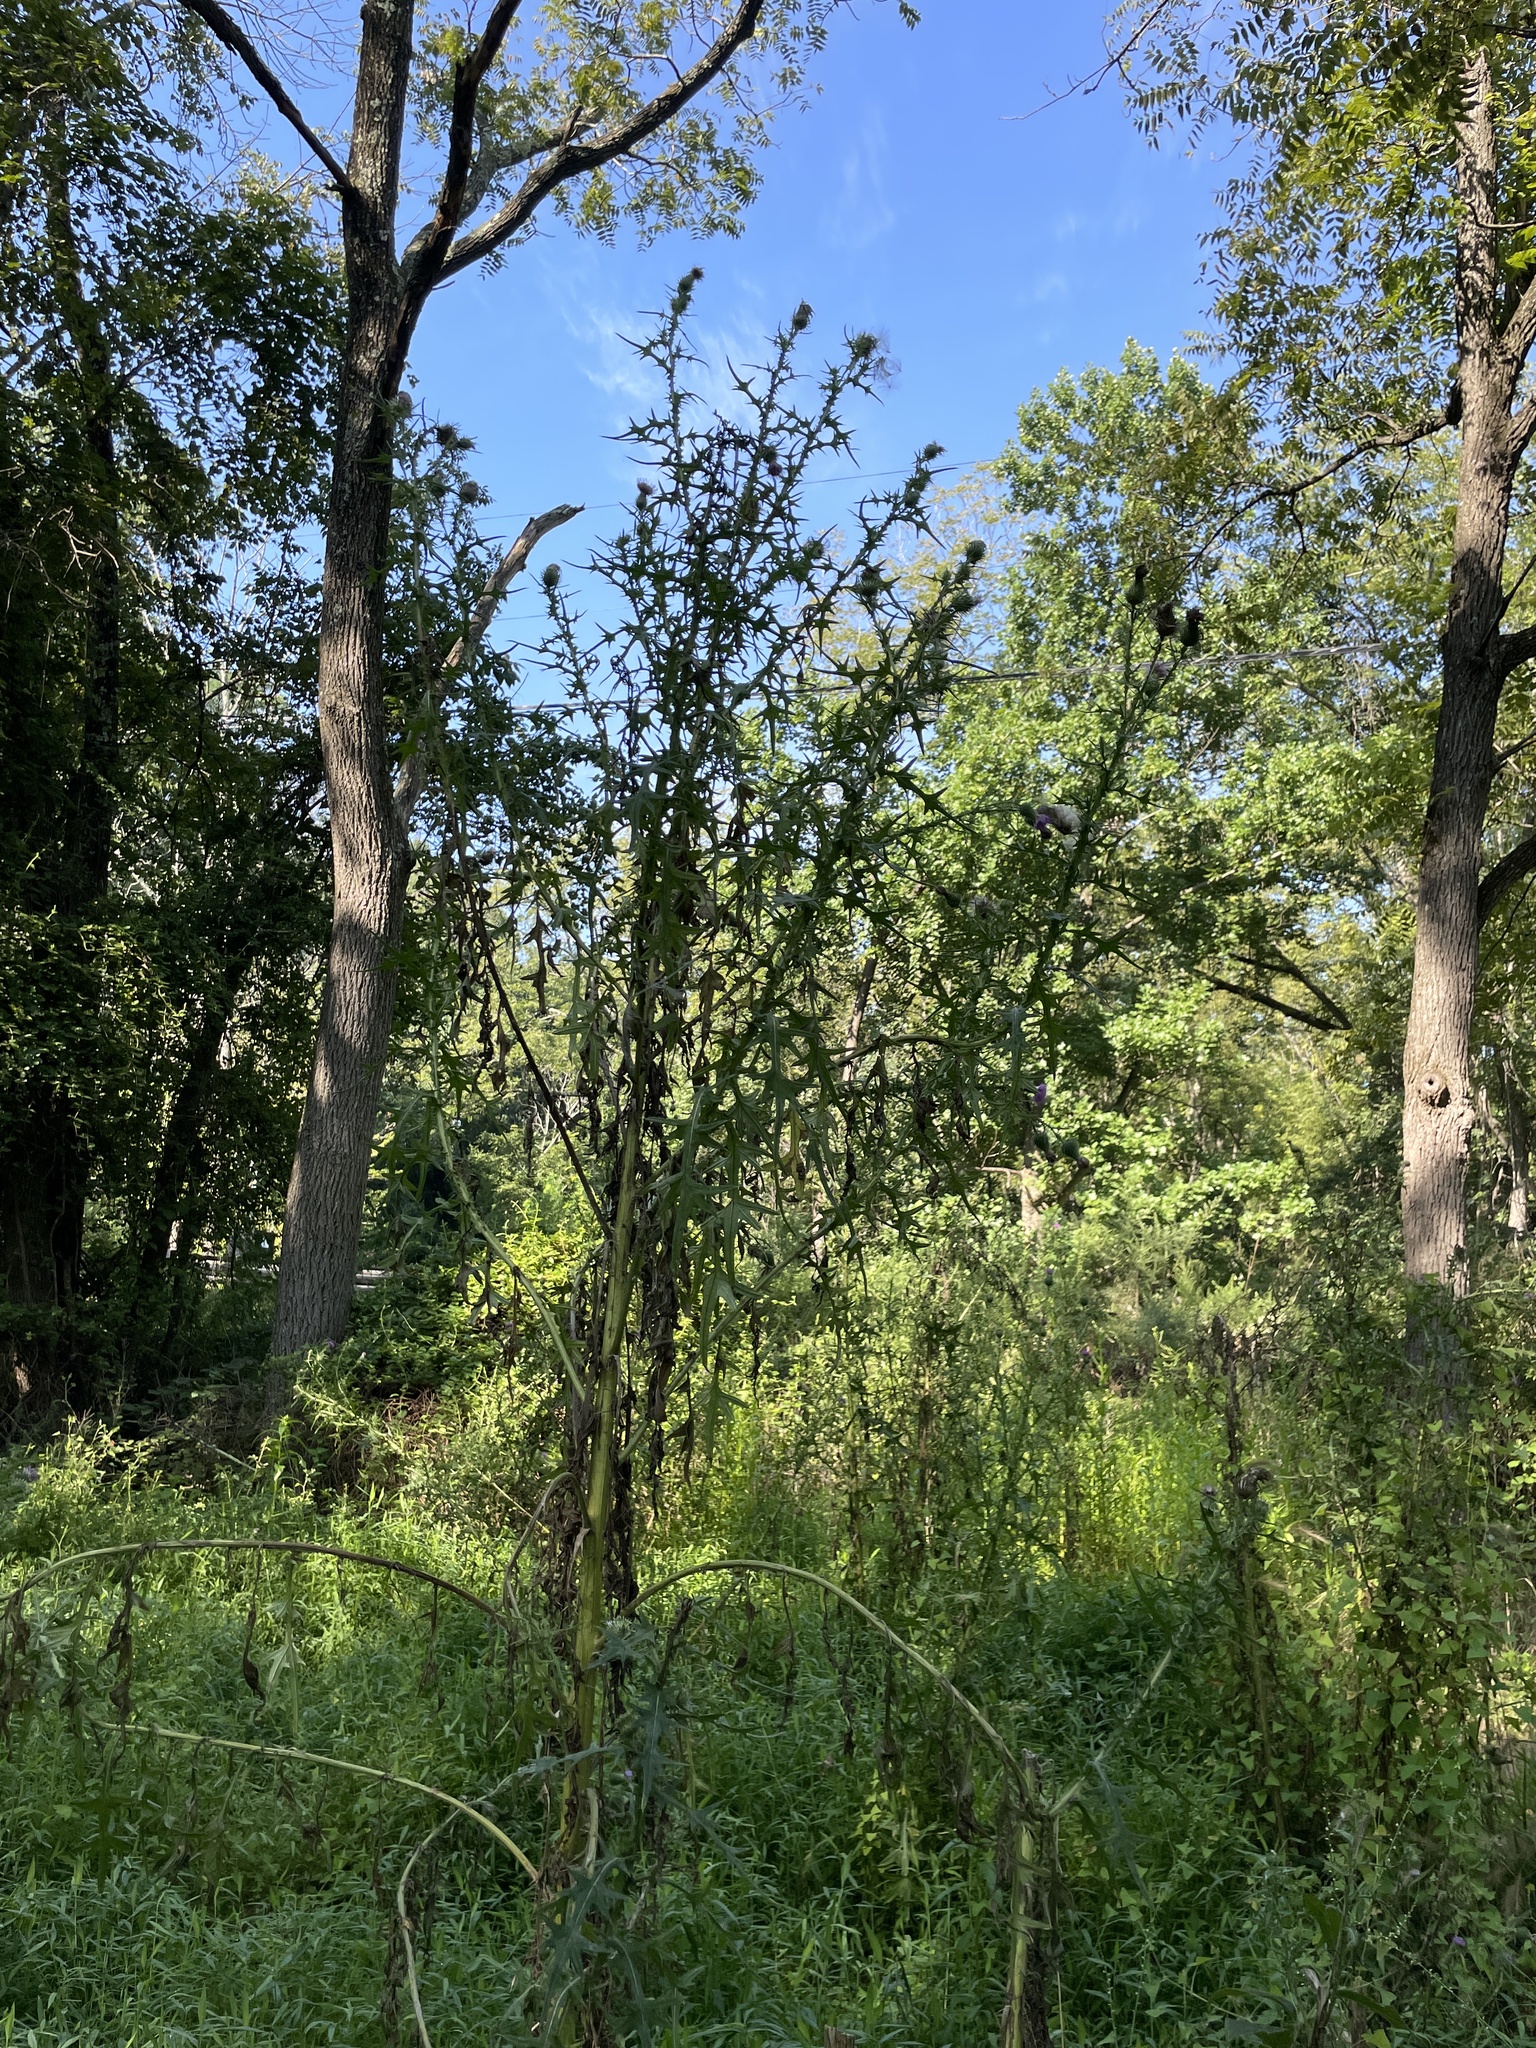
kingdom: Plantae
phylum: Tracheophyta
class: Magnoliopsida
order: Asterales
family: Asteraceae
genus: Cirsium
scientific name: Cirsium vulgare
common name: Bull thistle
